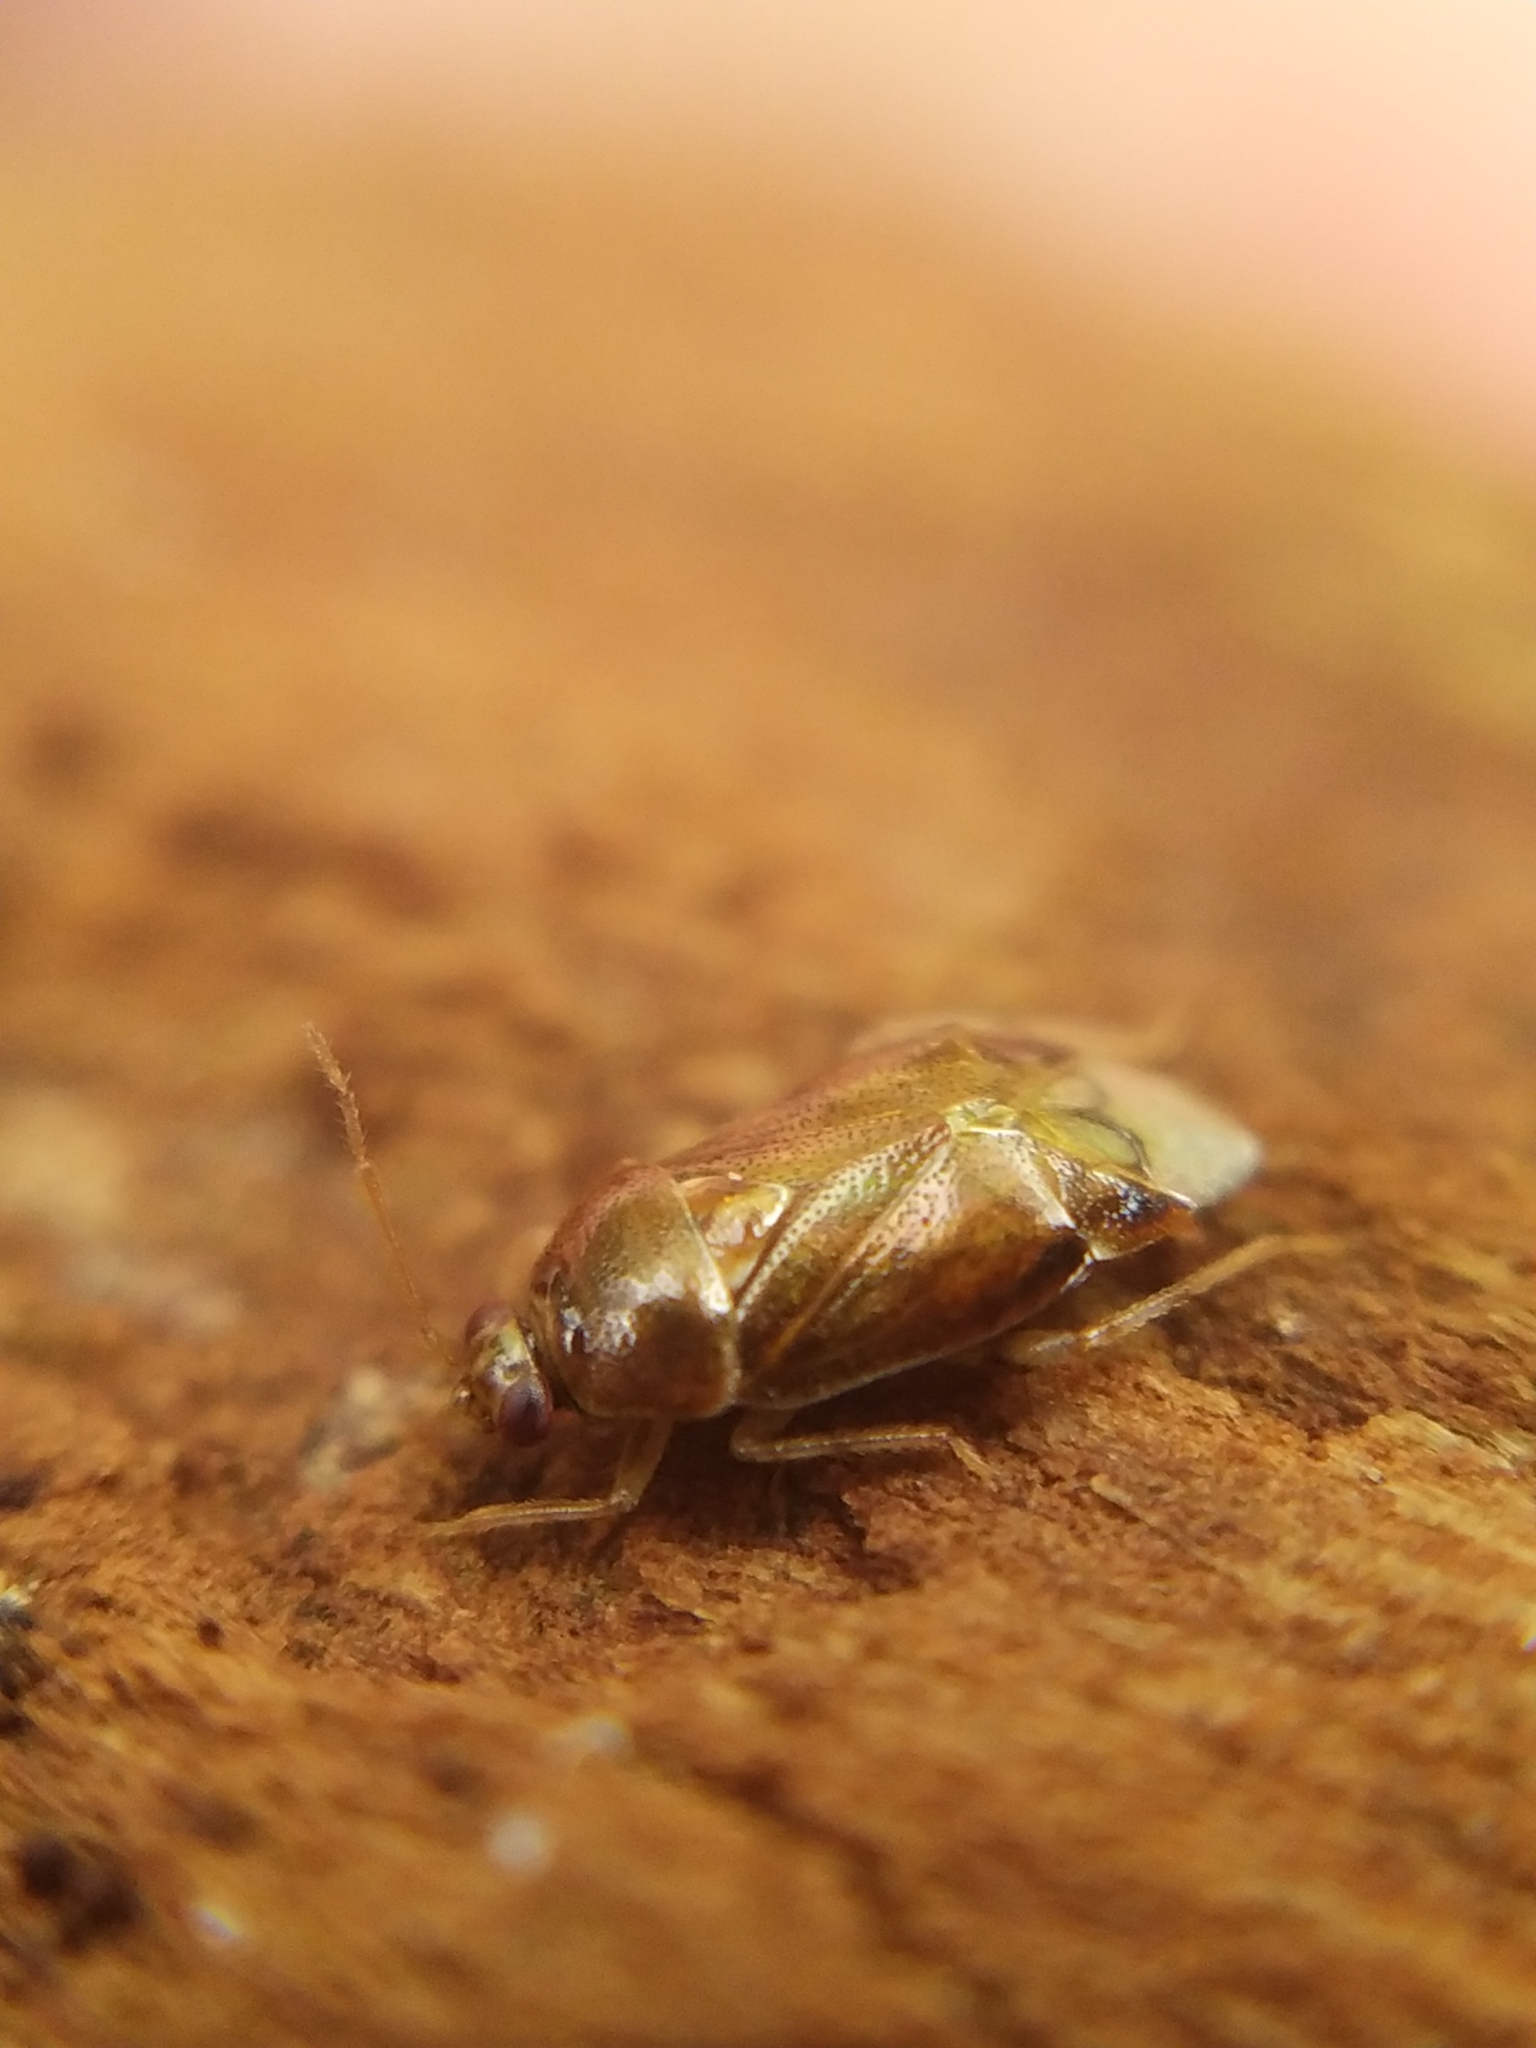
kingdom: Animalia
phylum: Arthropoda
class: Insecta
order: Hemiptera
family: Miridae
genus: Deraeocoris
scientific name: Deraeocoris lutescens
